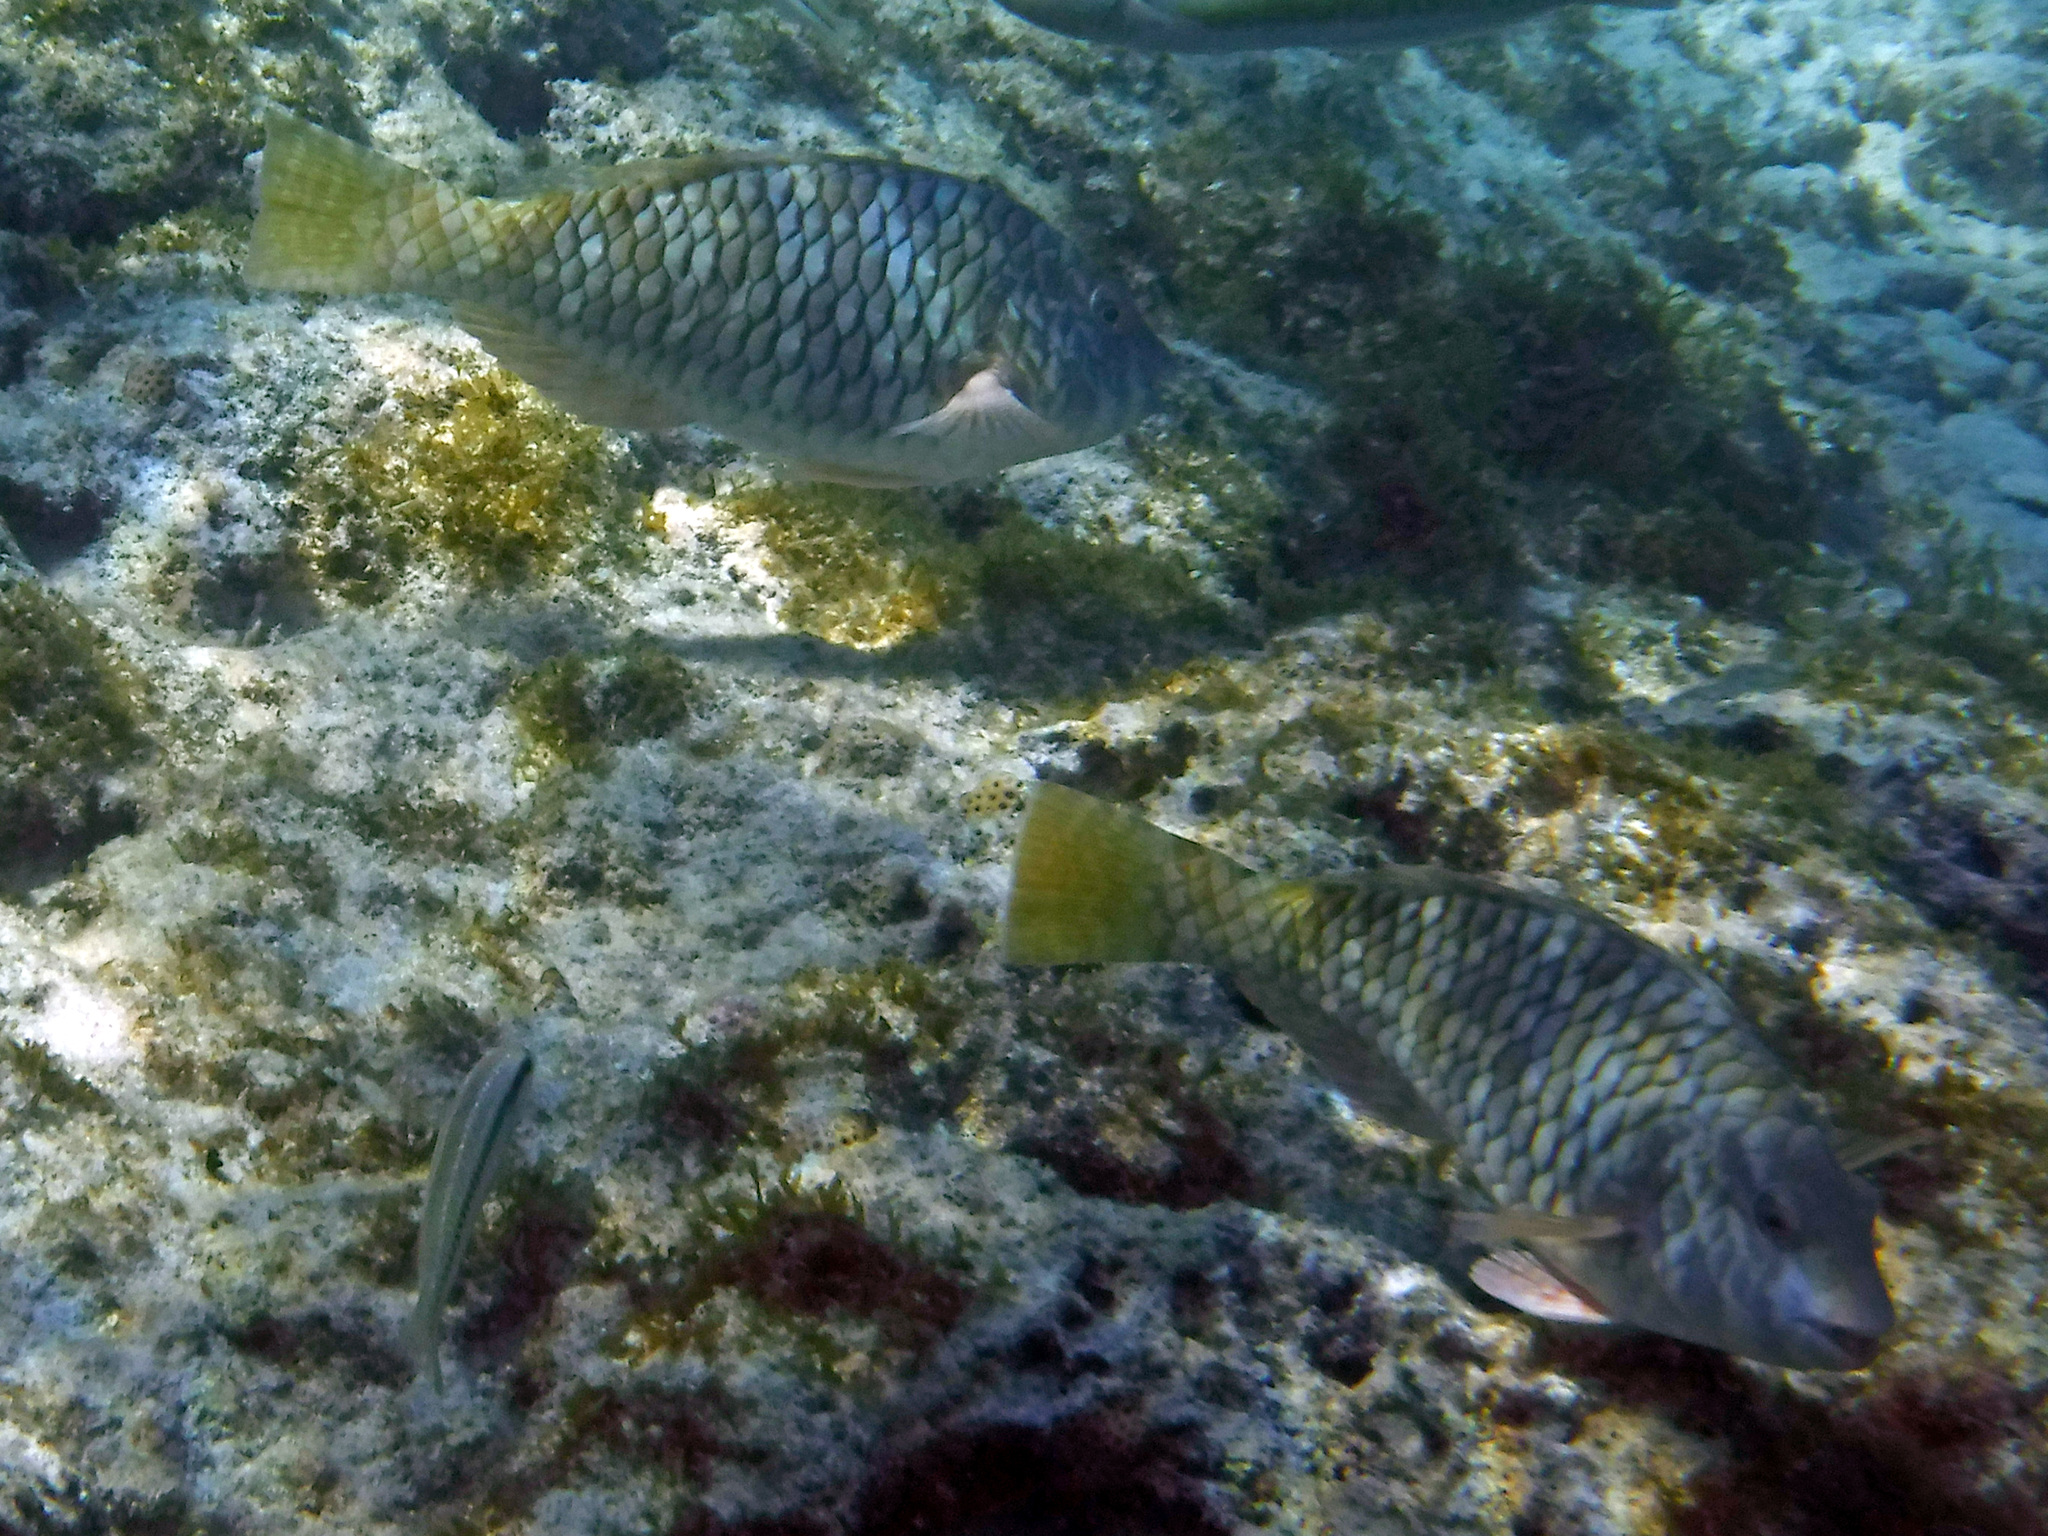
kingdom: Animalia
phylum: Chordata
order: Perciformes
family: Scaridae
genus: Sparisoma
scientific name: Sparisoma rubripinne
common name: Redfin parrotfish
